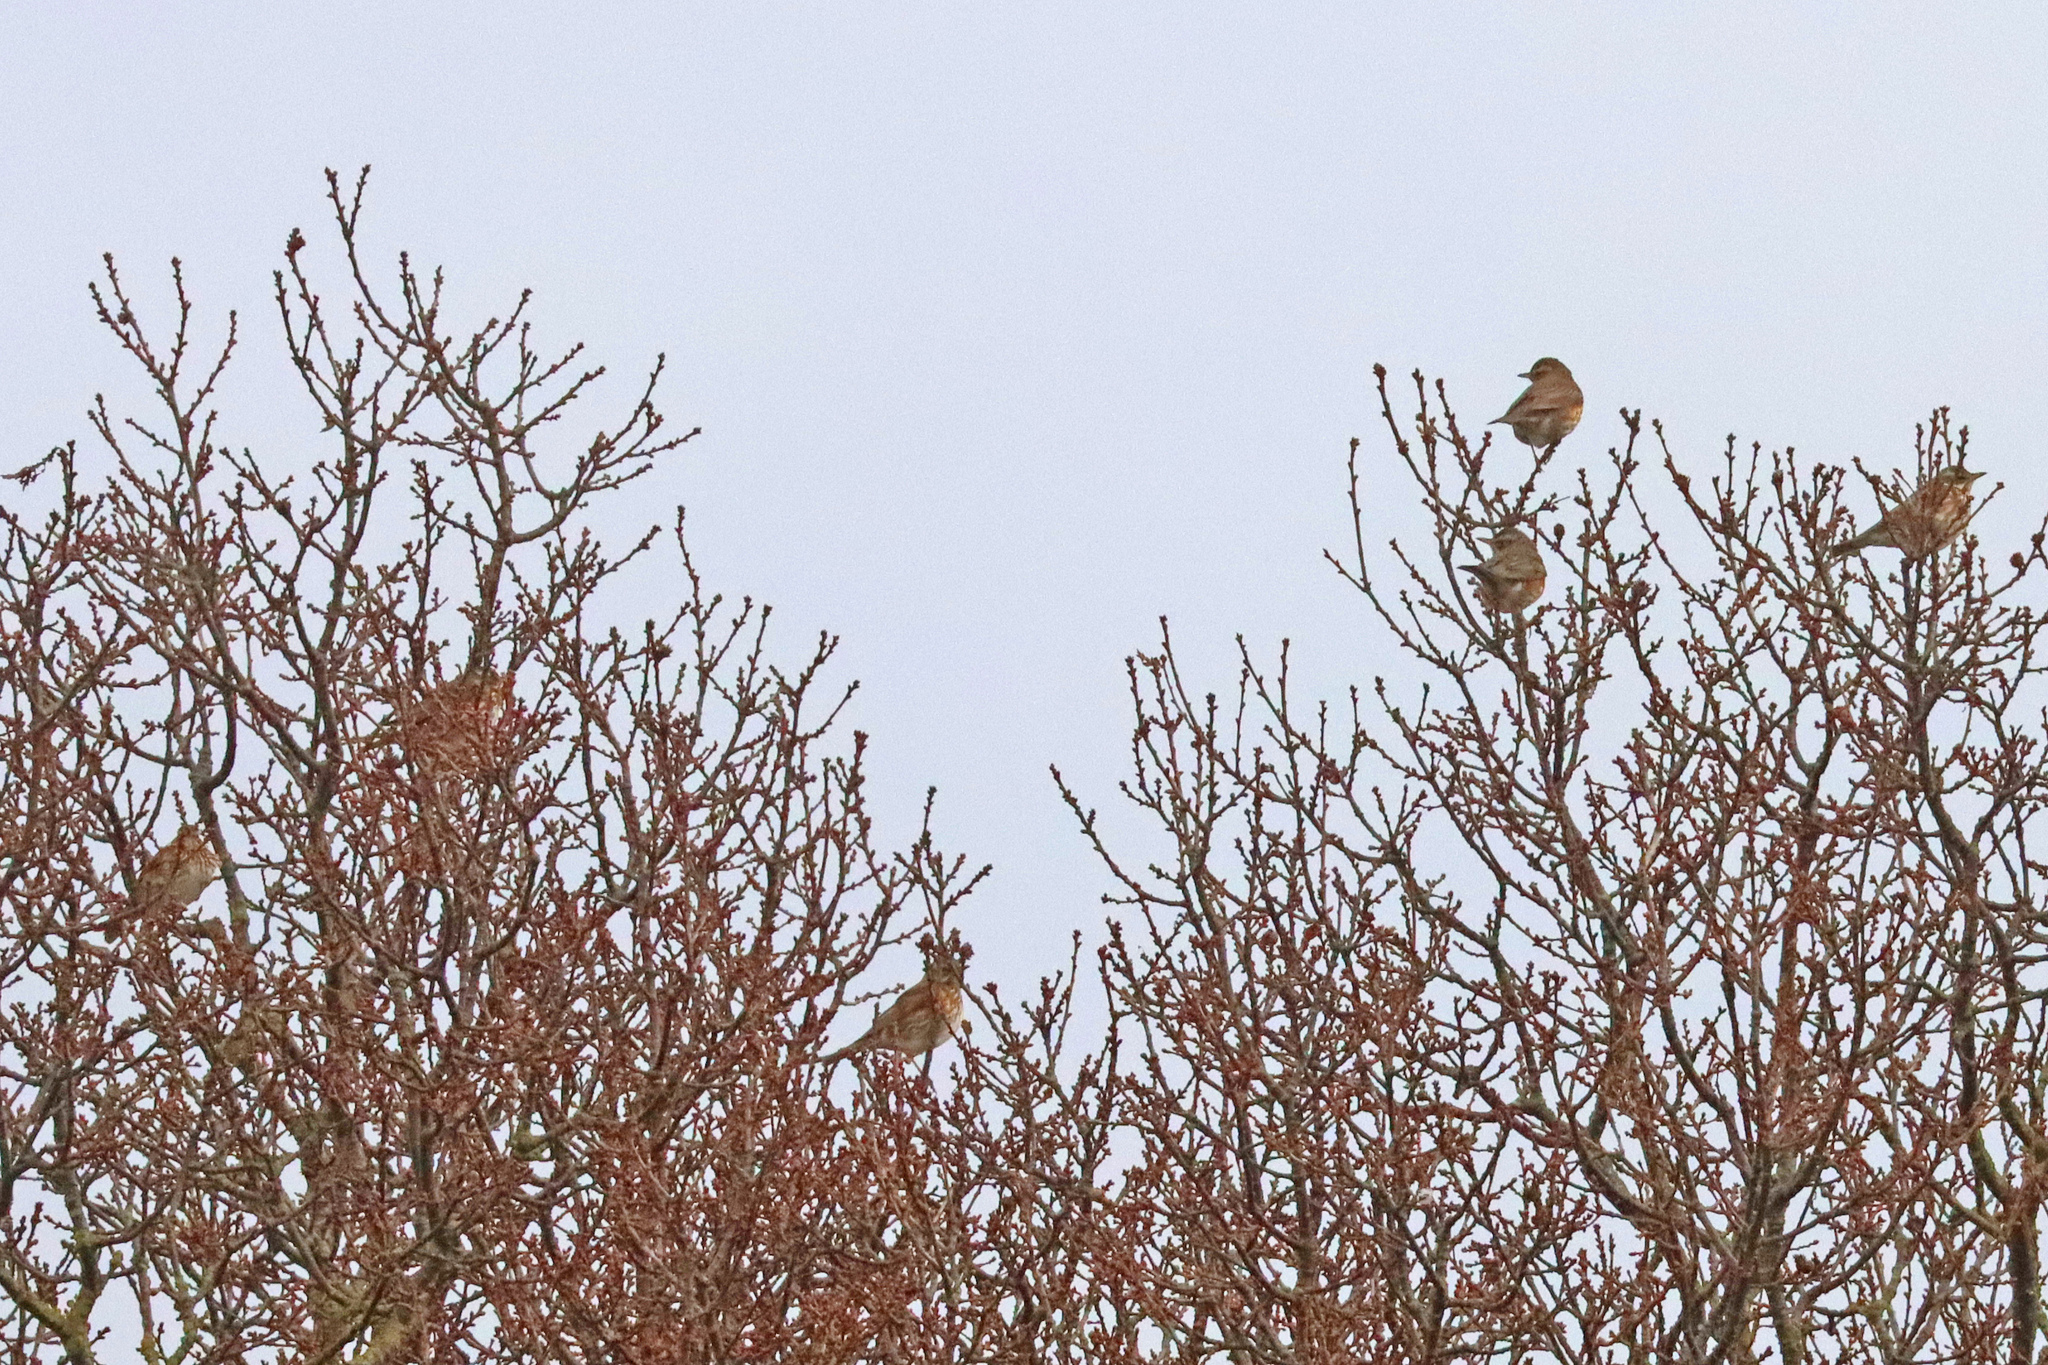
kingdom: Animalia
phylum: Chordata
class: Aves
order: Passeriformes
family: Turdidae
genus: Turdus
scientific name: Turdus iliacus
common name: Redwing
